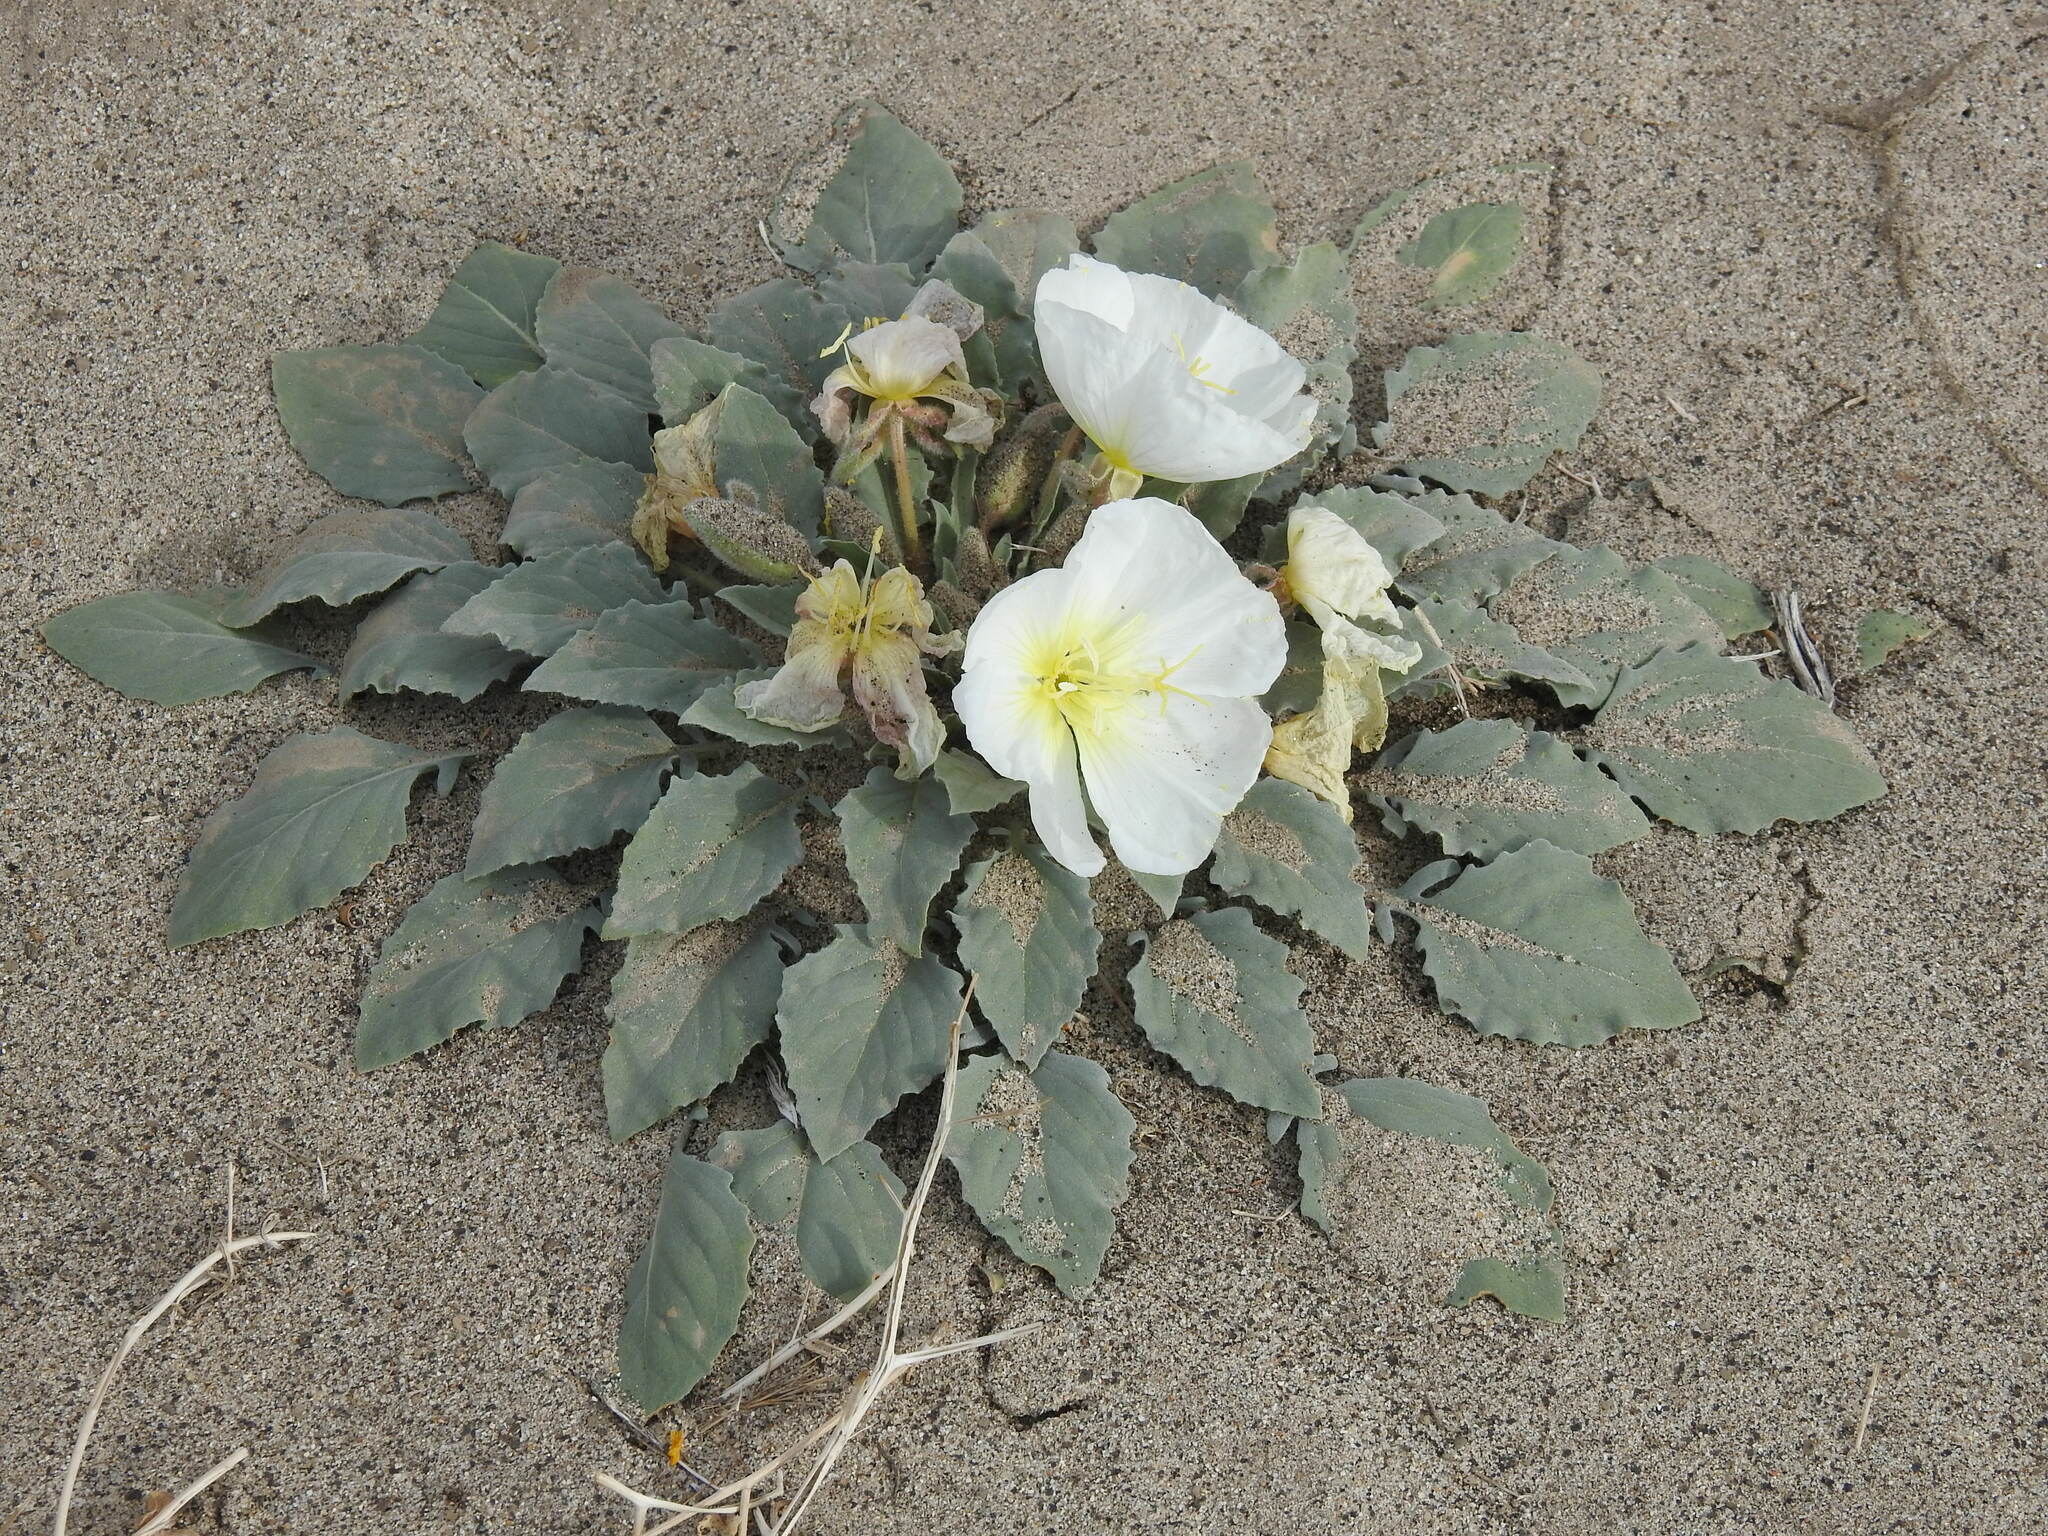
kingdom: Plantae
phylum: Tracheophyta
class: Magnoliopsida
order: Myrtales
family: Onagraceae
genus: Oenothera
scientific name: Oenothera deltoides
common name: Basket evening-primrose
